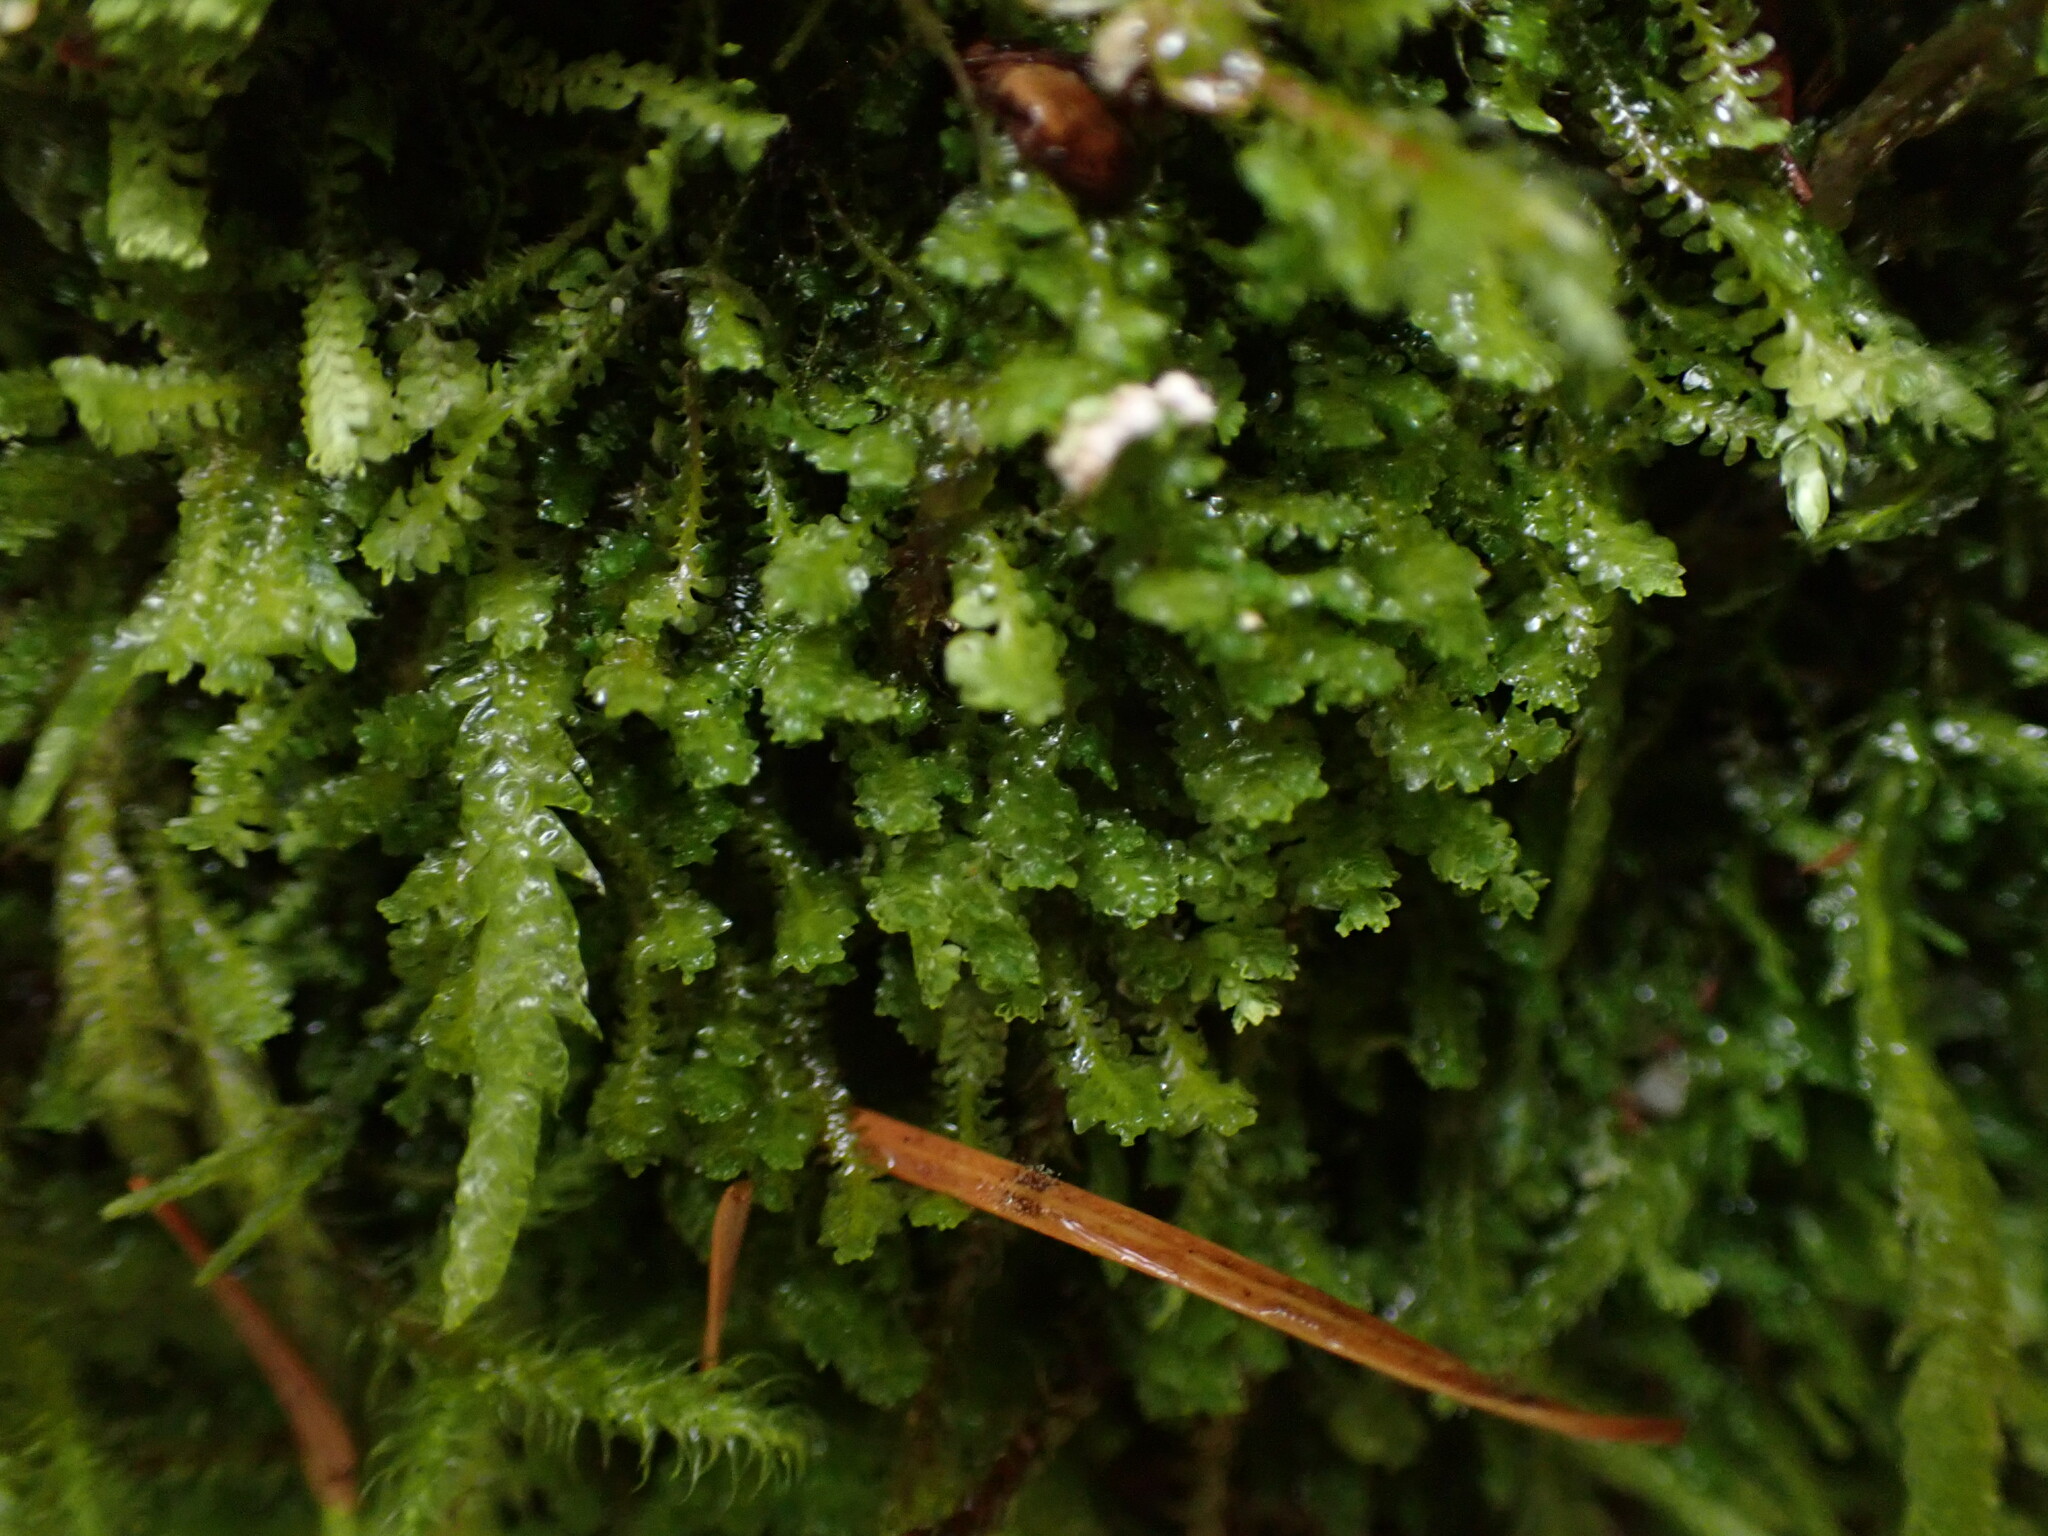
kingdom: Plantae
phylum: Marchantiophyta
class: Jungermanniopsida
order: Jungermanniales
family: Scapaniaceae
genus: Diplophyllum
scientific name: Diplophyllum taxifolium
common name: Alpine earwort
